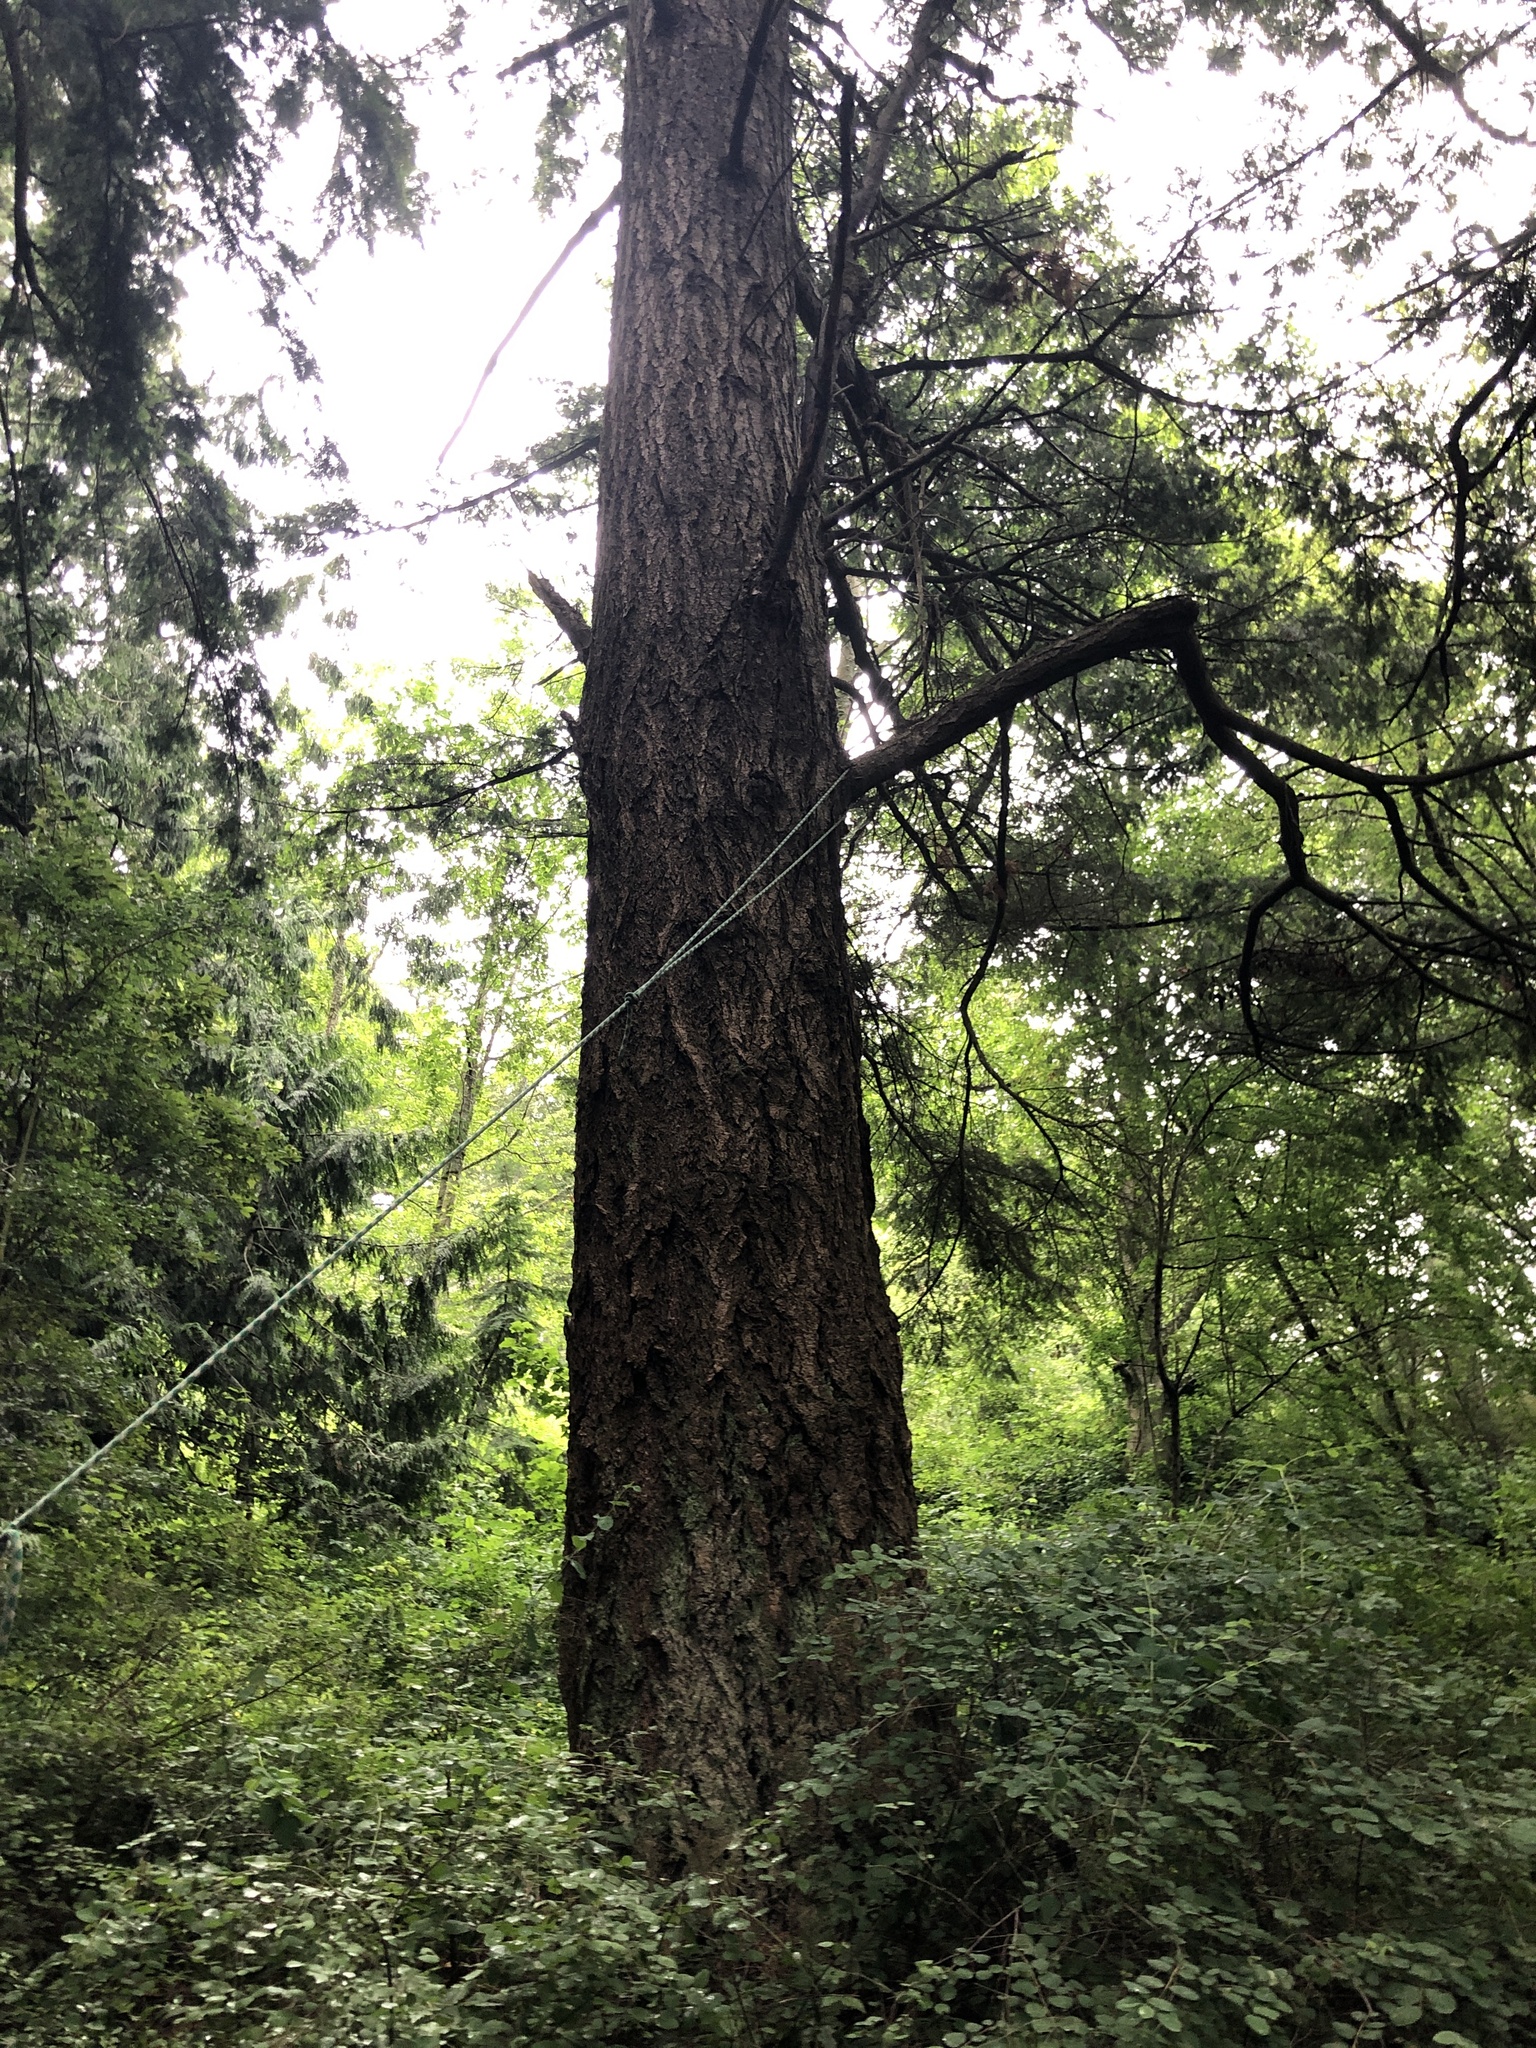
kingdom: Plantae
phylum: Tracheophyta
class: Pinopsida
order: Pinales
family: Pinaceae
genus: Pseudotsuga
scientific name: Pseudotsuga menziesii
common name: Douglas fir
